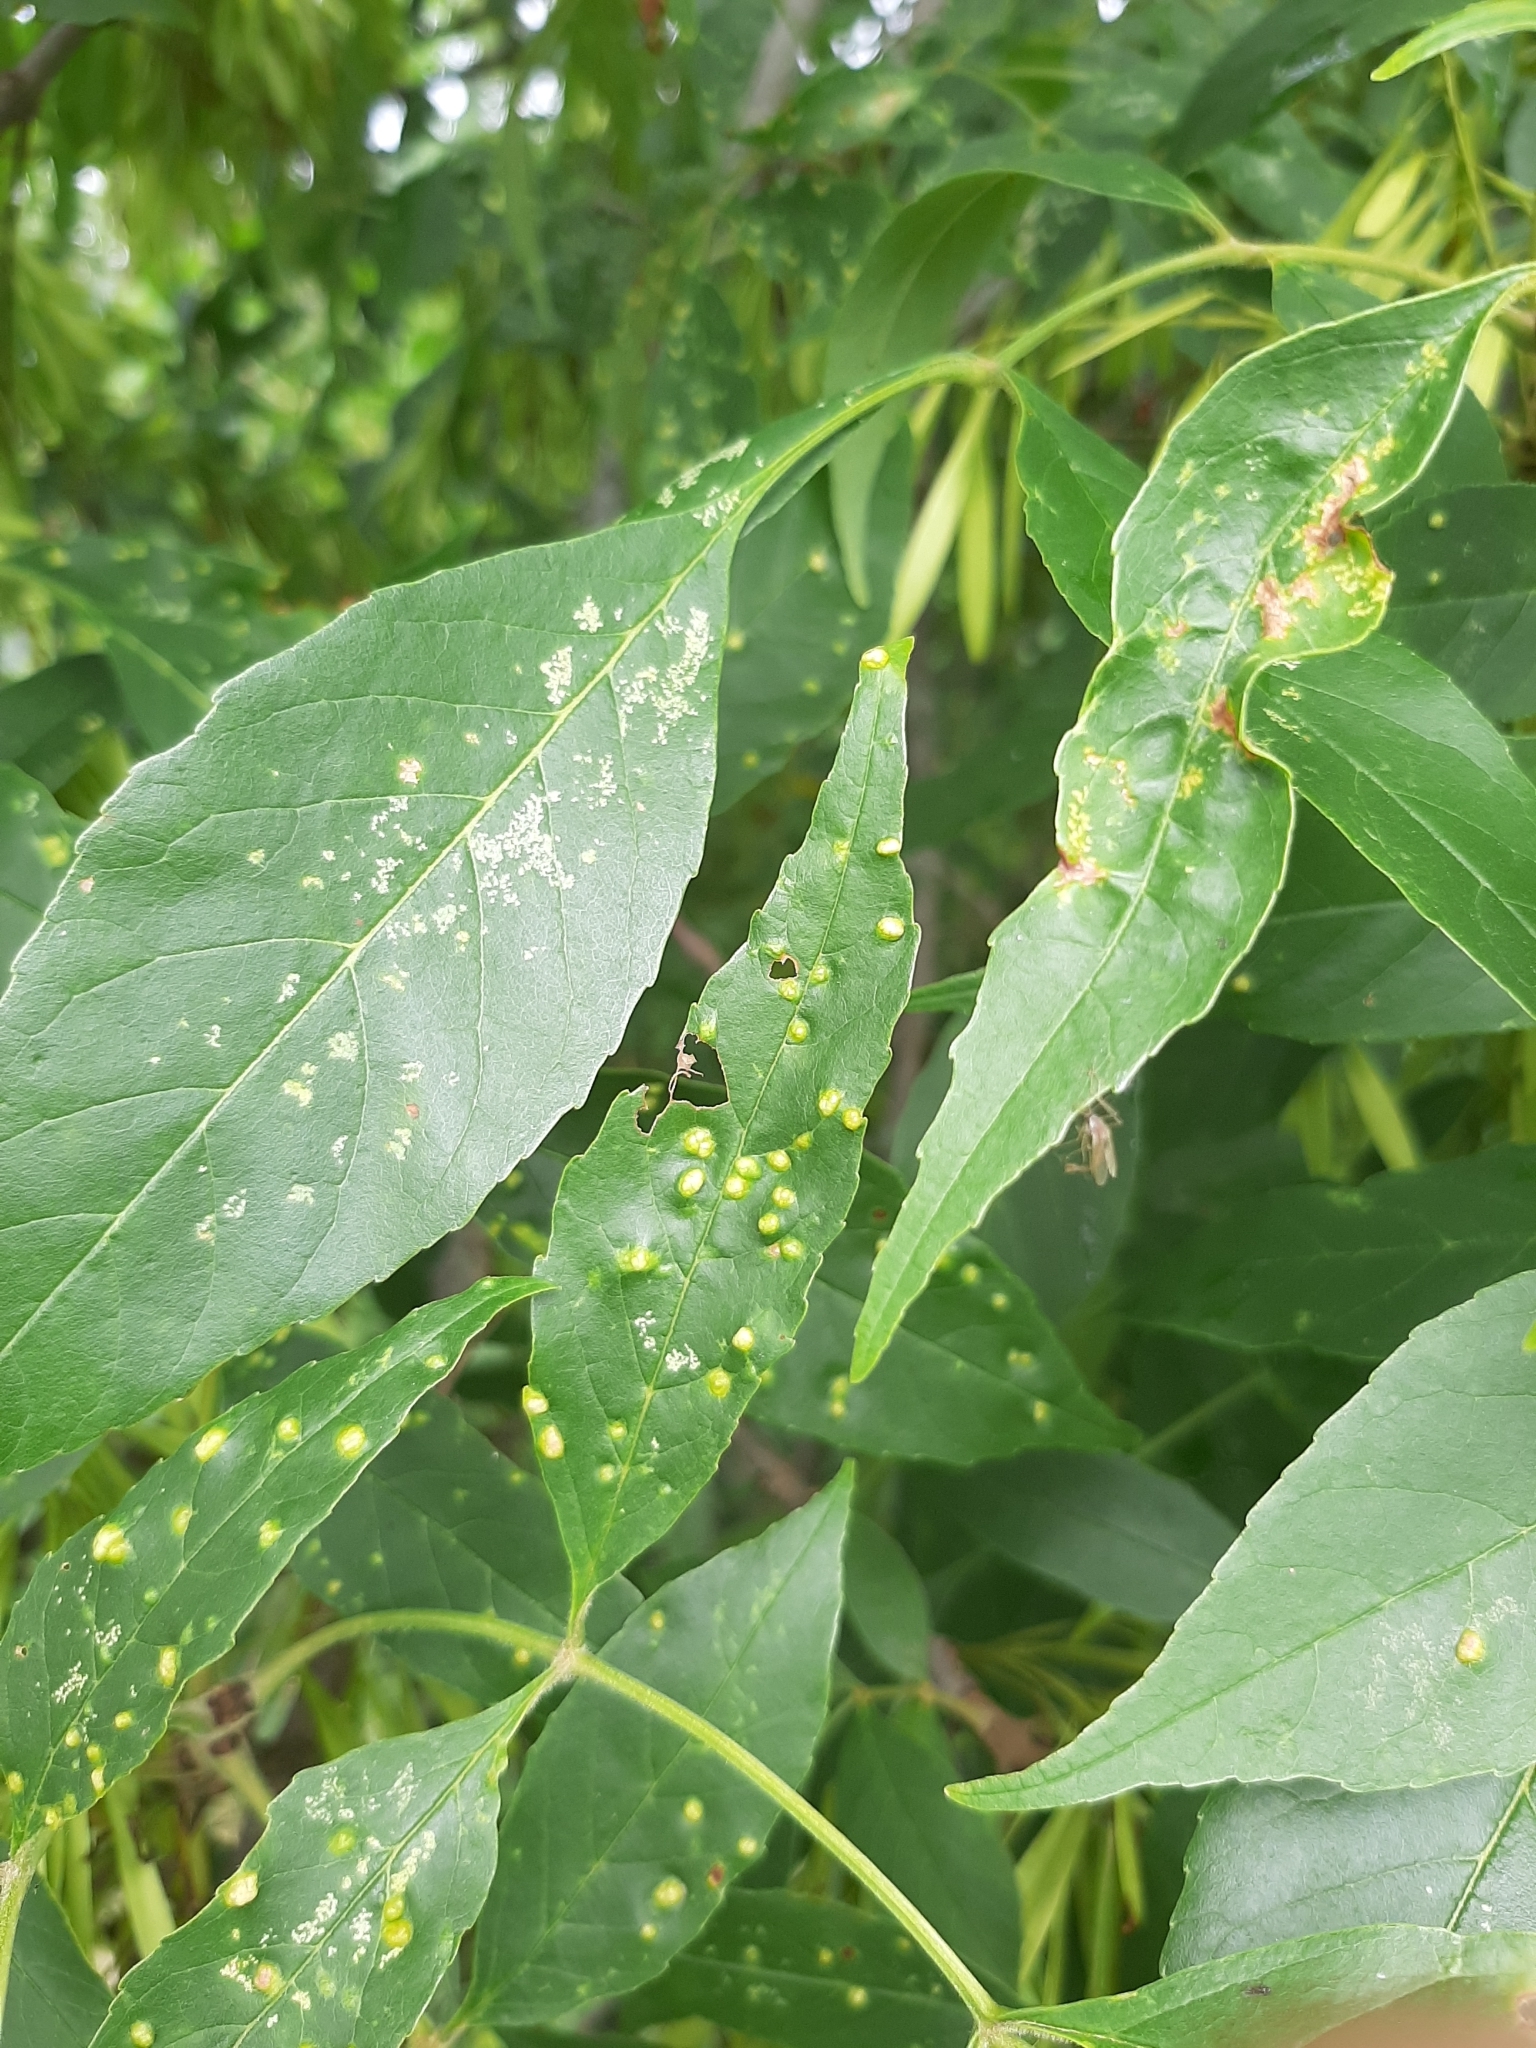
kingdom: Animalia
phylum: Arthropoda
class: Arachnida
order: Trombidiformes
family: Eriophyidae
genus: Aceria
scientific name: Aceria fraxinicola
